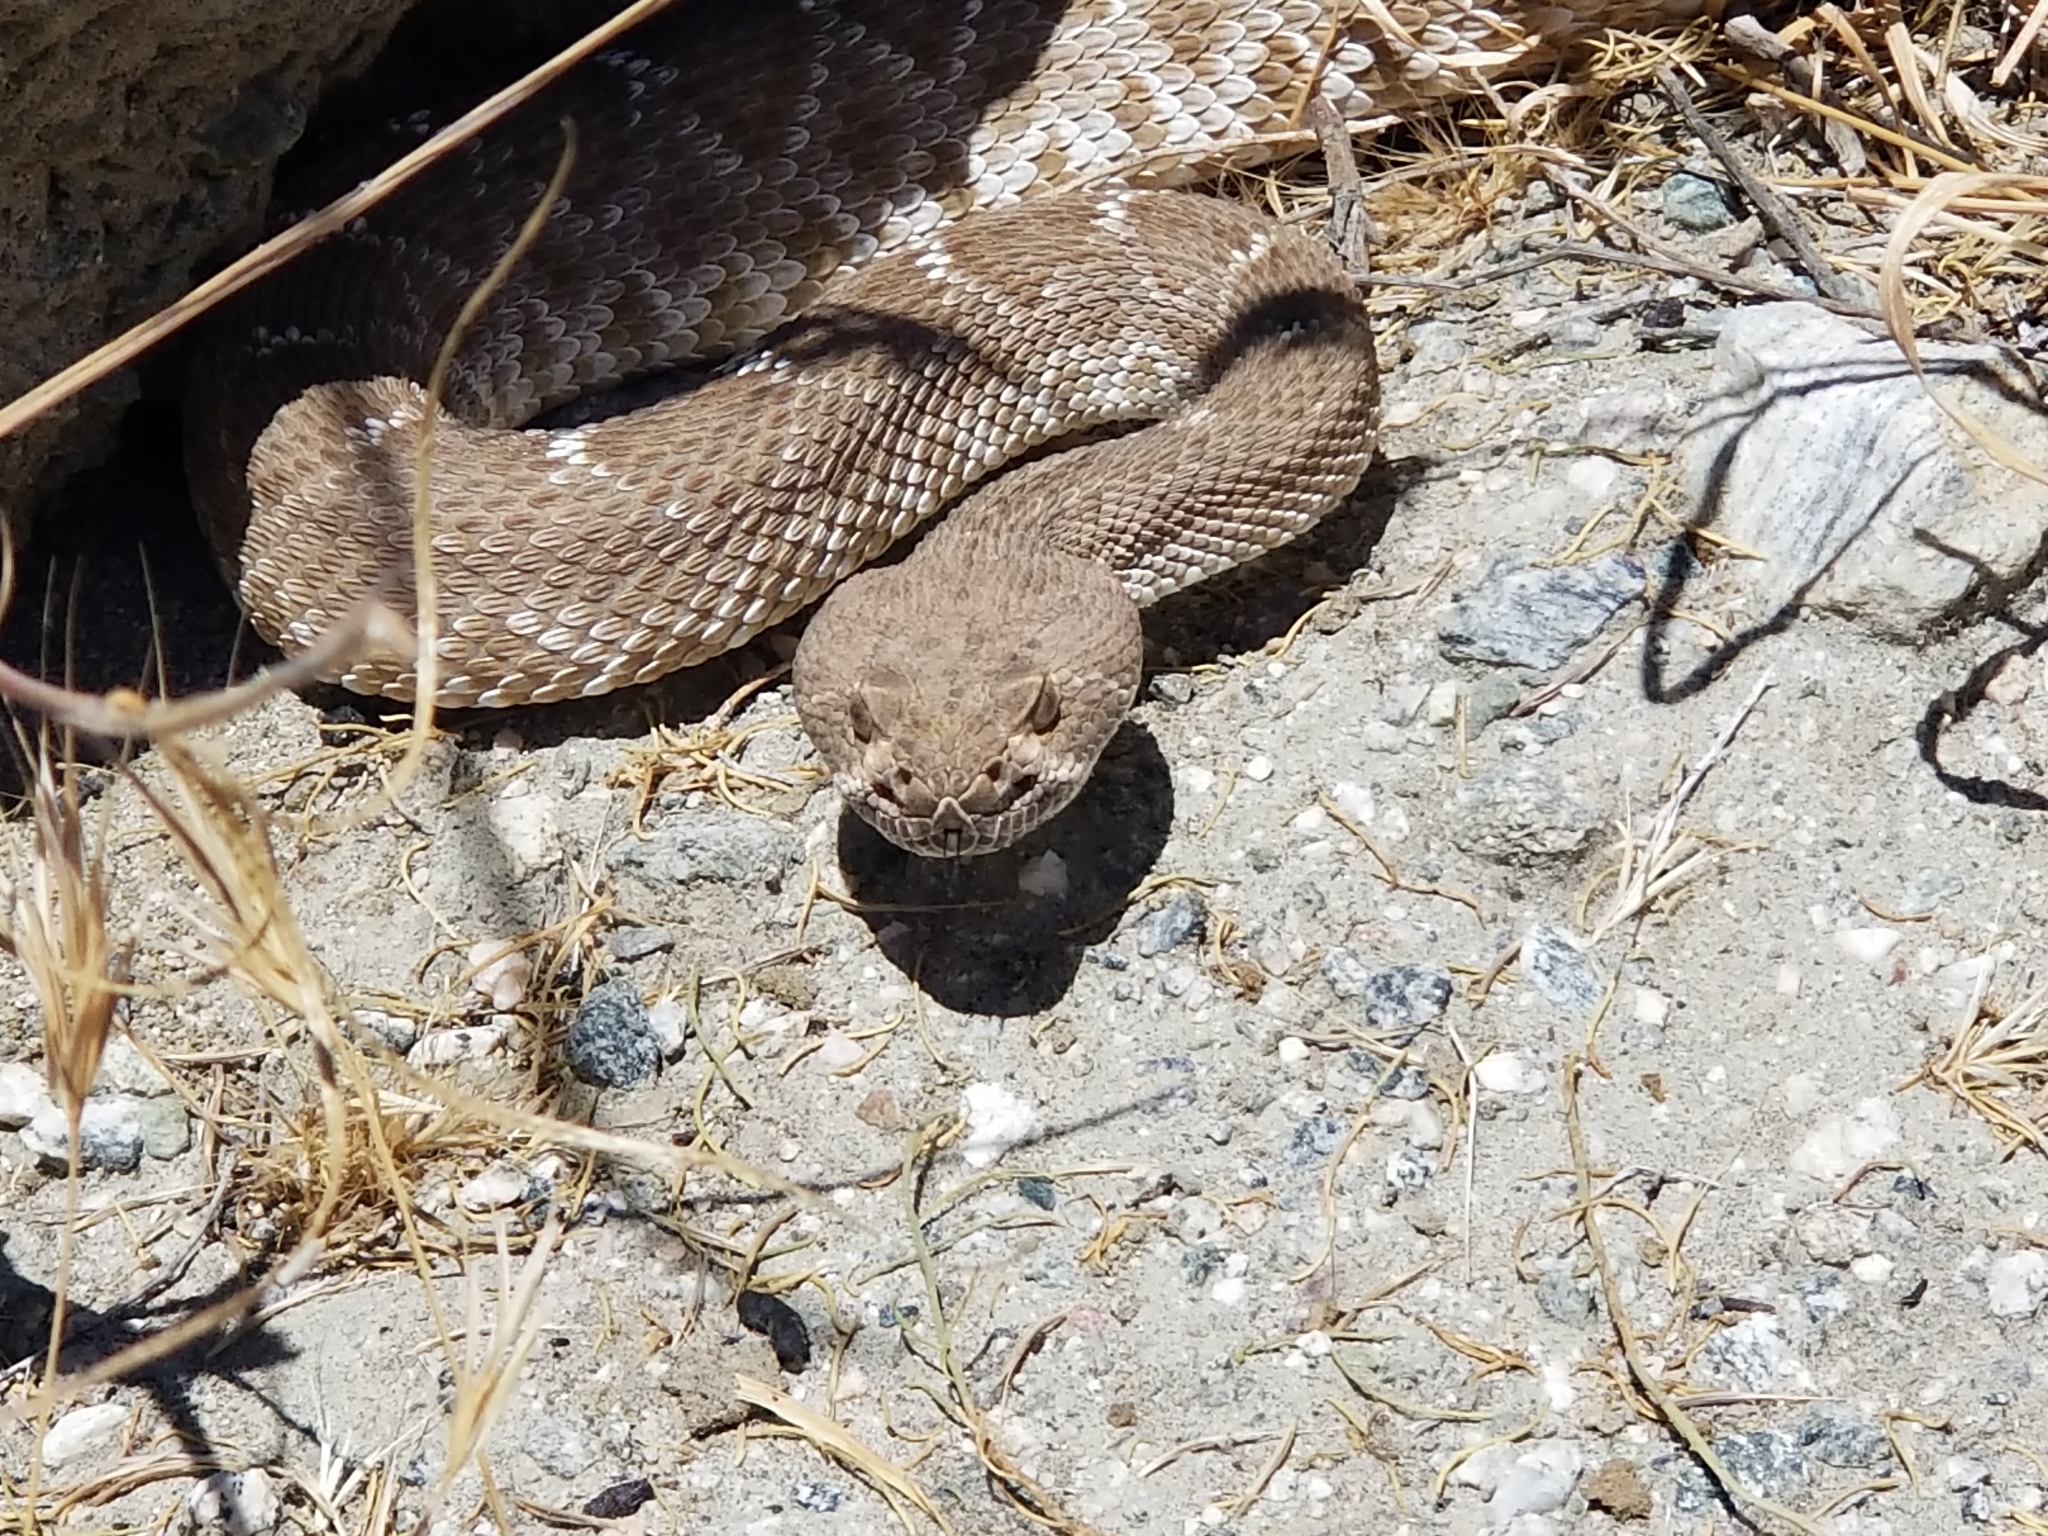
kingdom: Animalia
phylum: Chordata
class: Squamata
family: Viperidae
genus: Crotalus
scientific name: Crotalus ruber
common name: Red diamond rattlesnake
